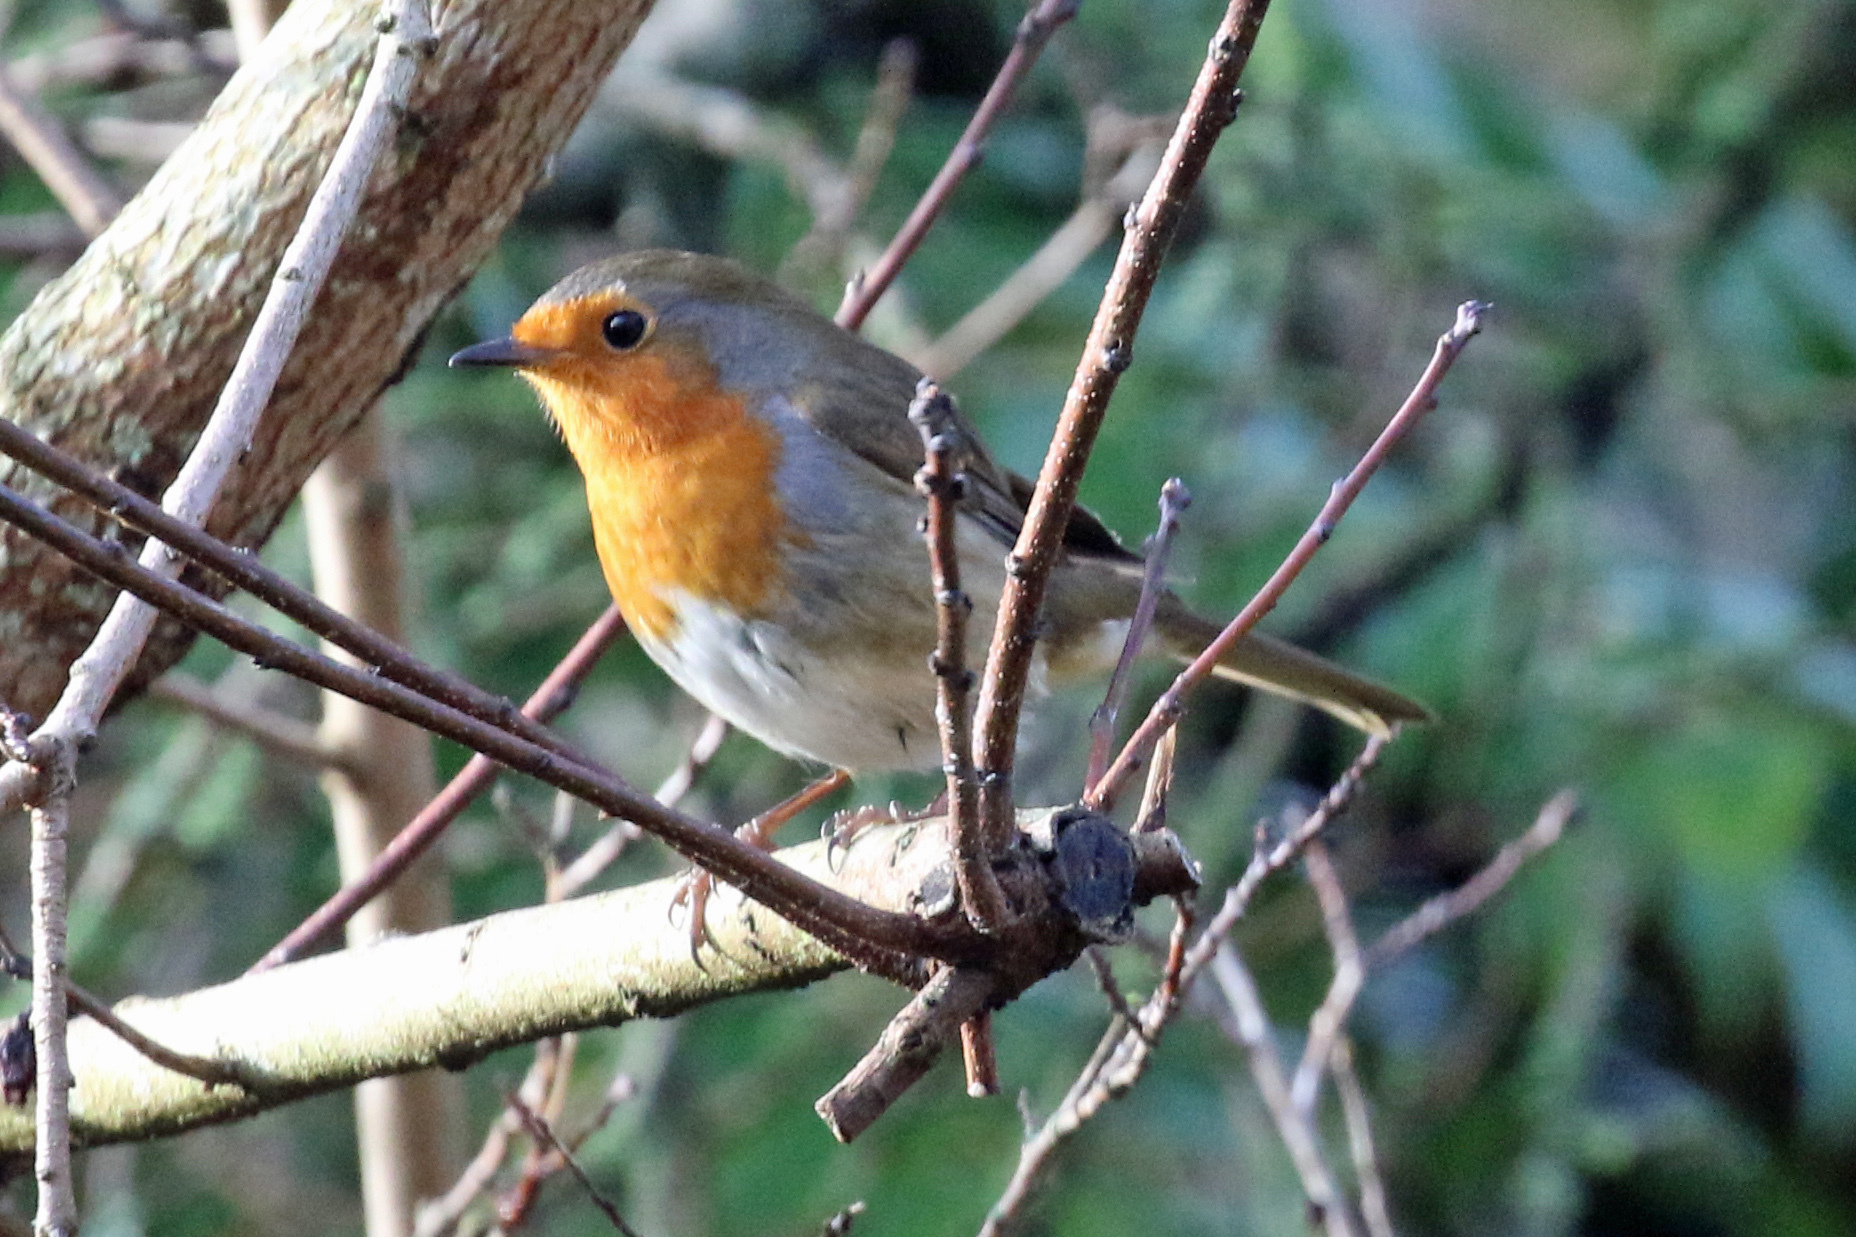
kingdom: Animalia
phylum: Chordata
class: Aves
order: Passeriformes
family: Muscicapidae
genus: Erithacus
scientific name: Erithacus rubecula
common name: European robin
